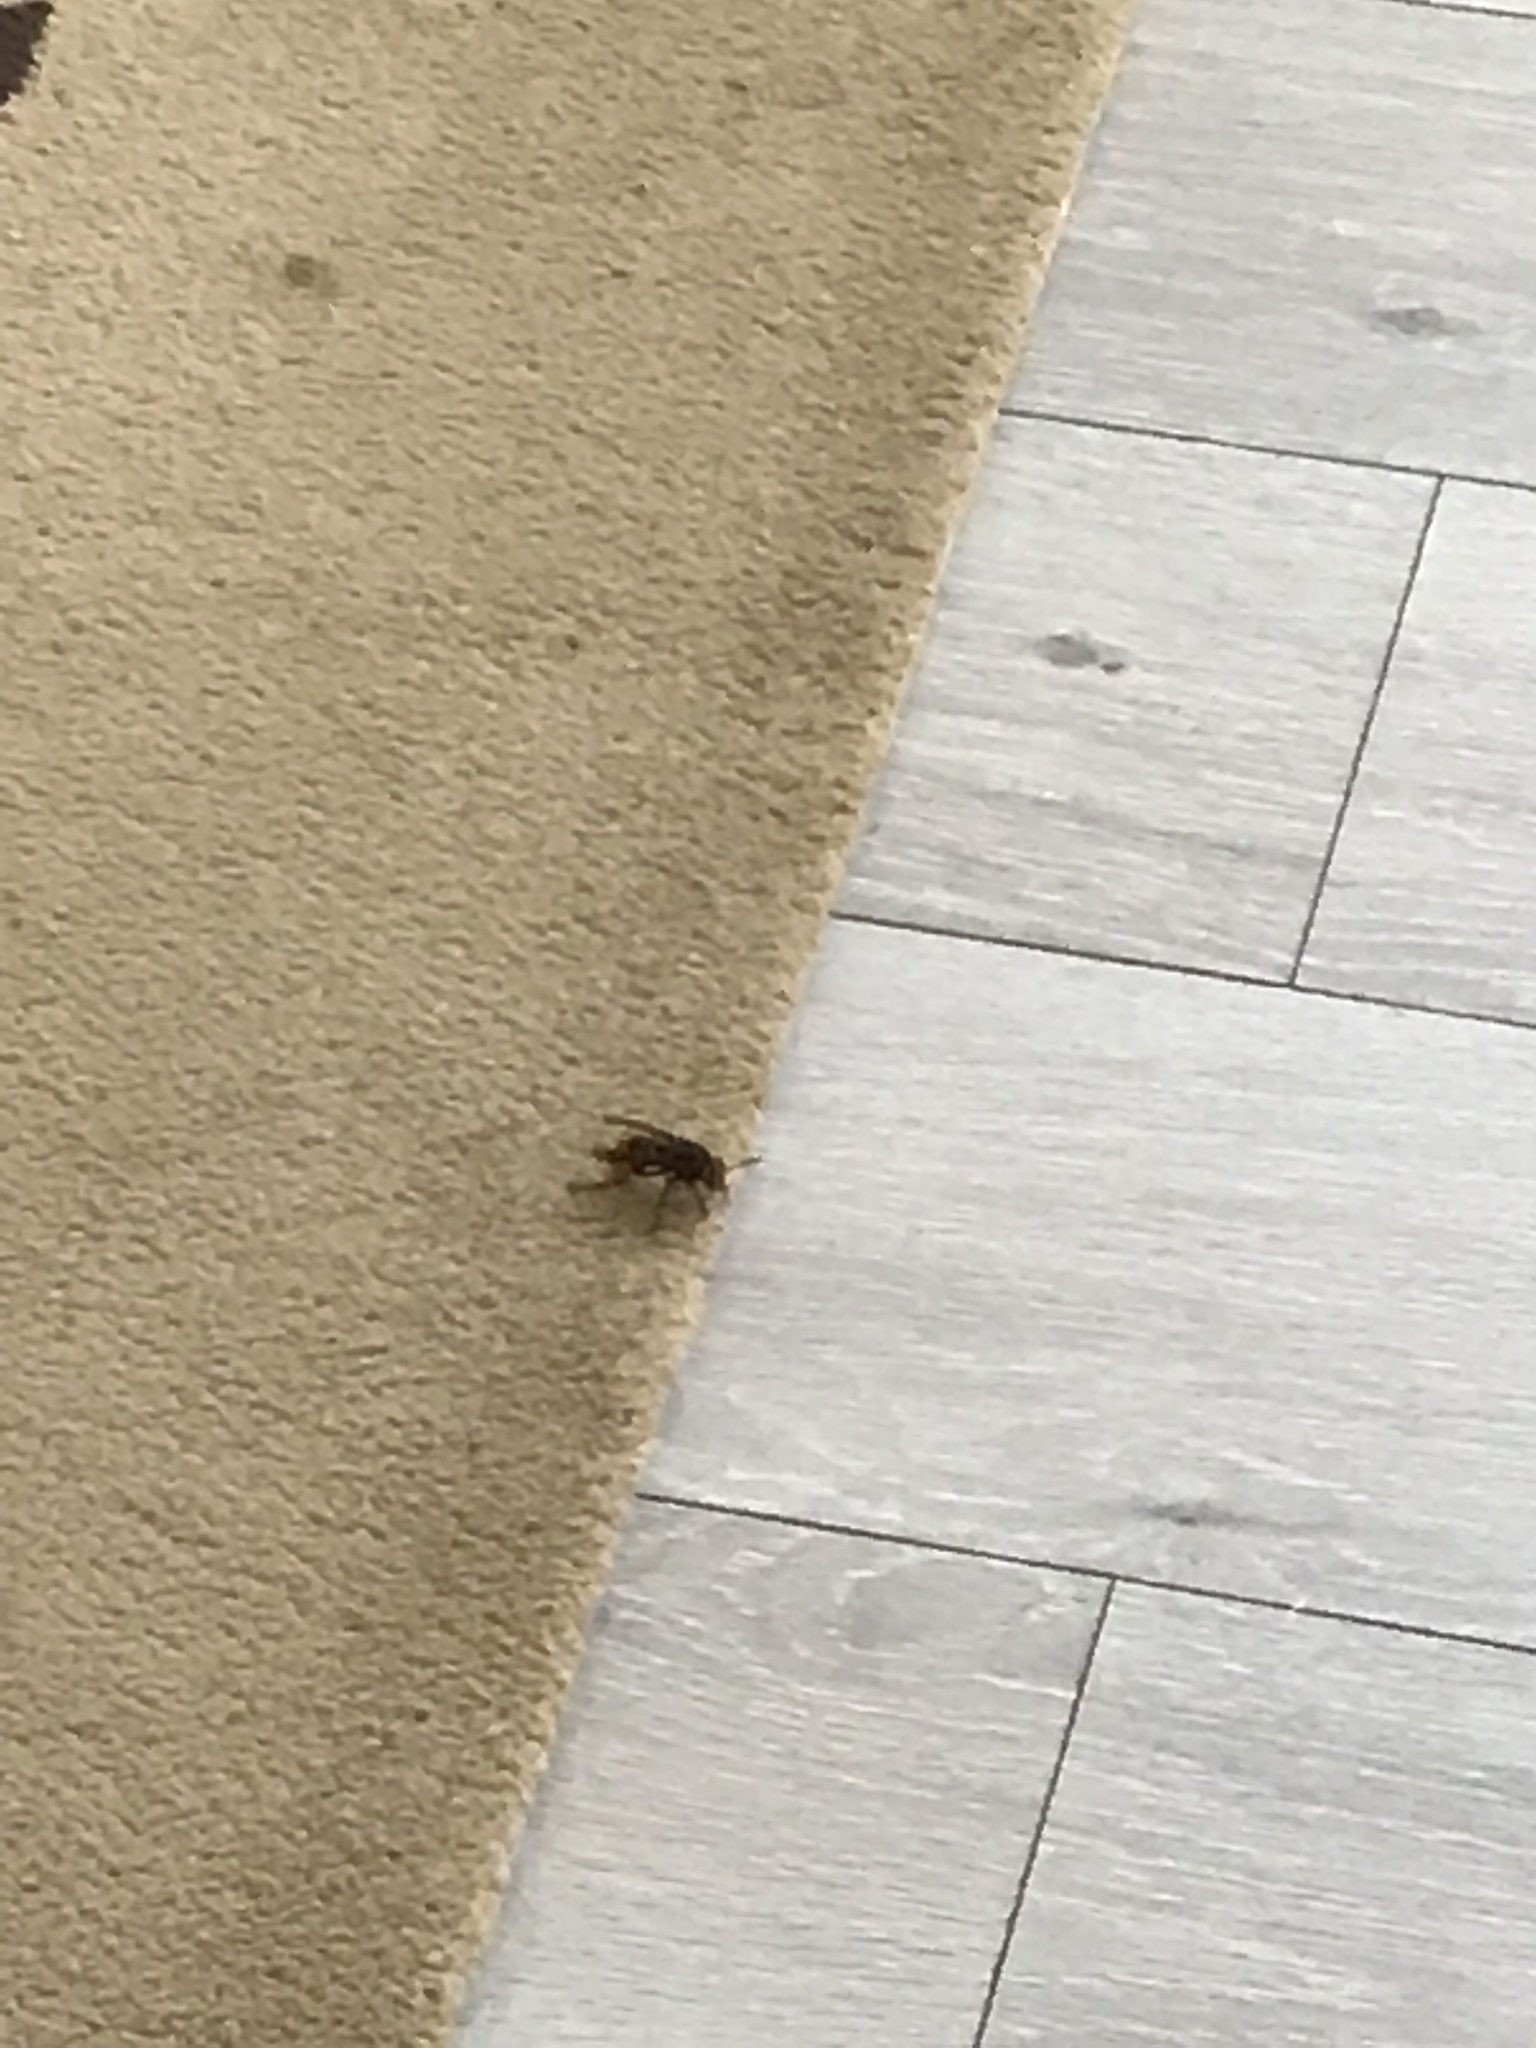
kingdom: Animalia
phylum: Arthropoda
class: Insecta
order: Hymenoptera
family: Vespidae
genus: Vespa
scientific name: Vespa crabro
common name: Hornet
